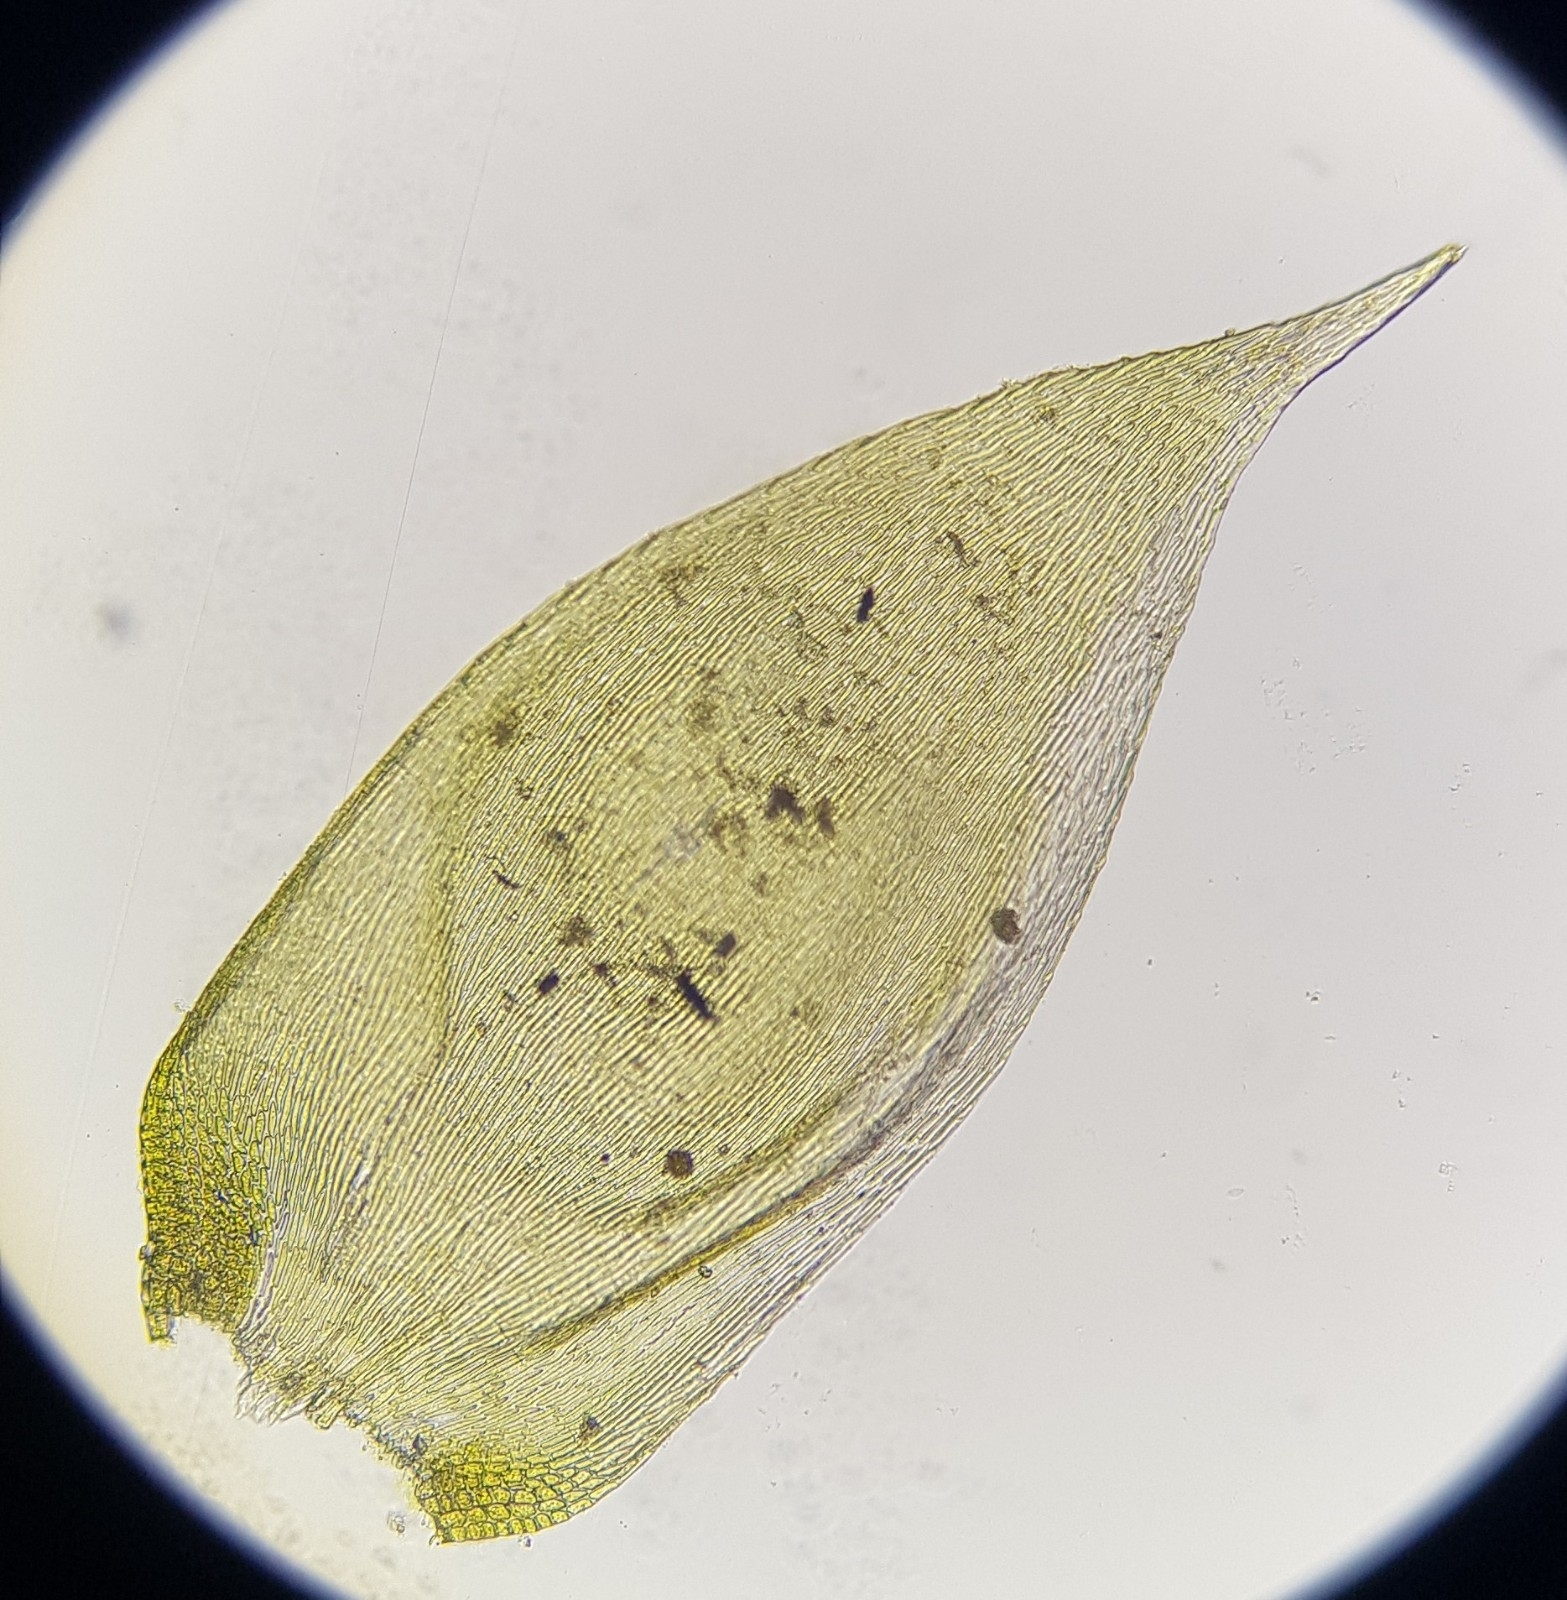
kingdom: Plantae
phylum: Bryophyta
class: Bryopsida
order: Hypnales
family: Hypnaceae
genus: Hypnum
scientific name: Hypnum resupinatum
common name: Supine plait-moss
